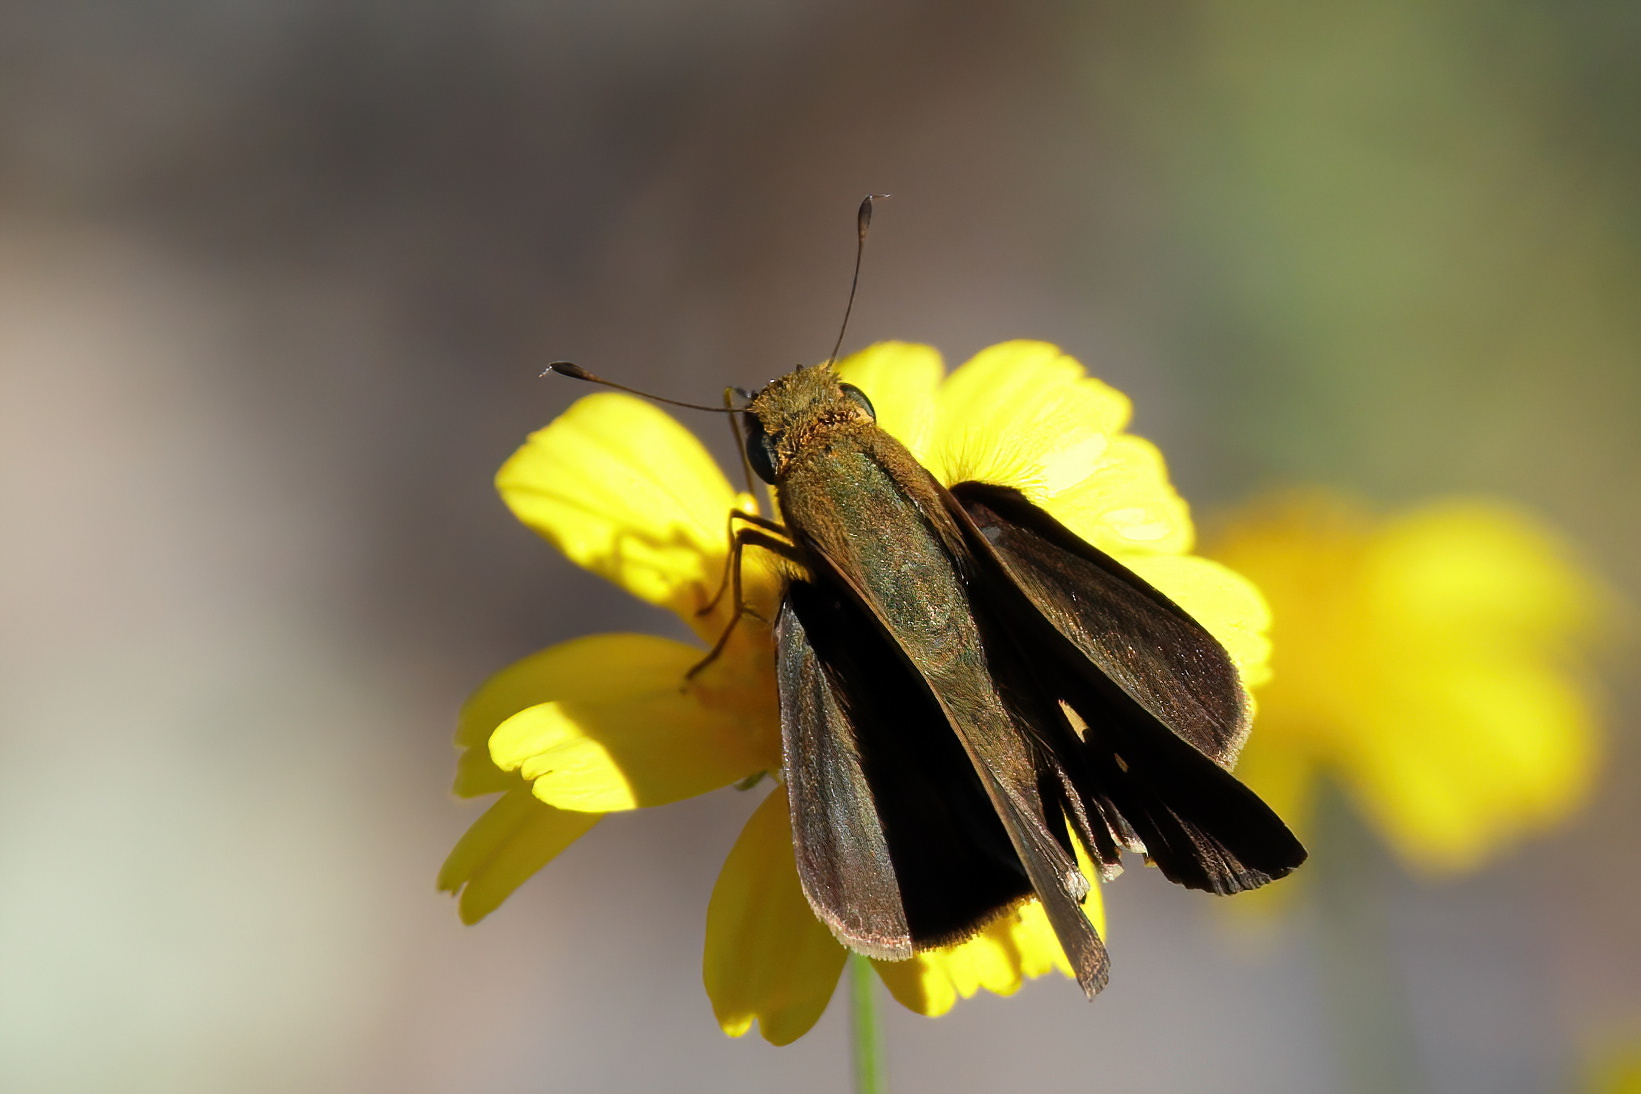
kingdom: Animalia
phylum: Arthropoda
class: Insecta
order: Lepidoptera
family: Hesperiidae
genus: Panoquina
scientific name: Panoquina ocola
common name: Ocola skipper
